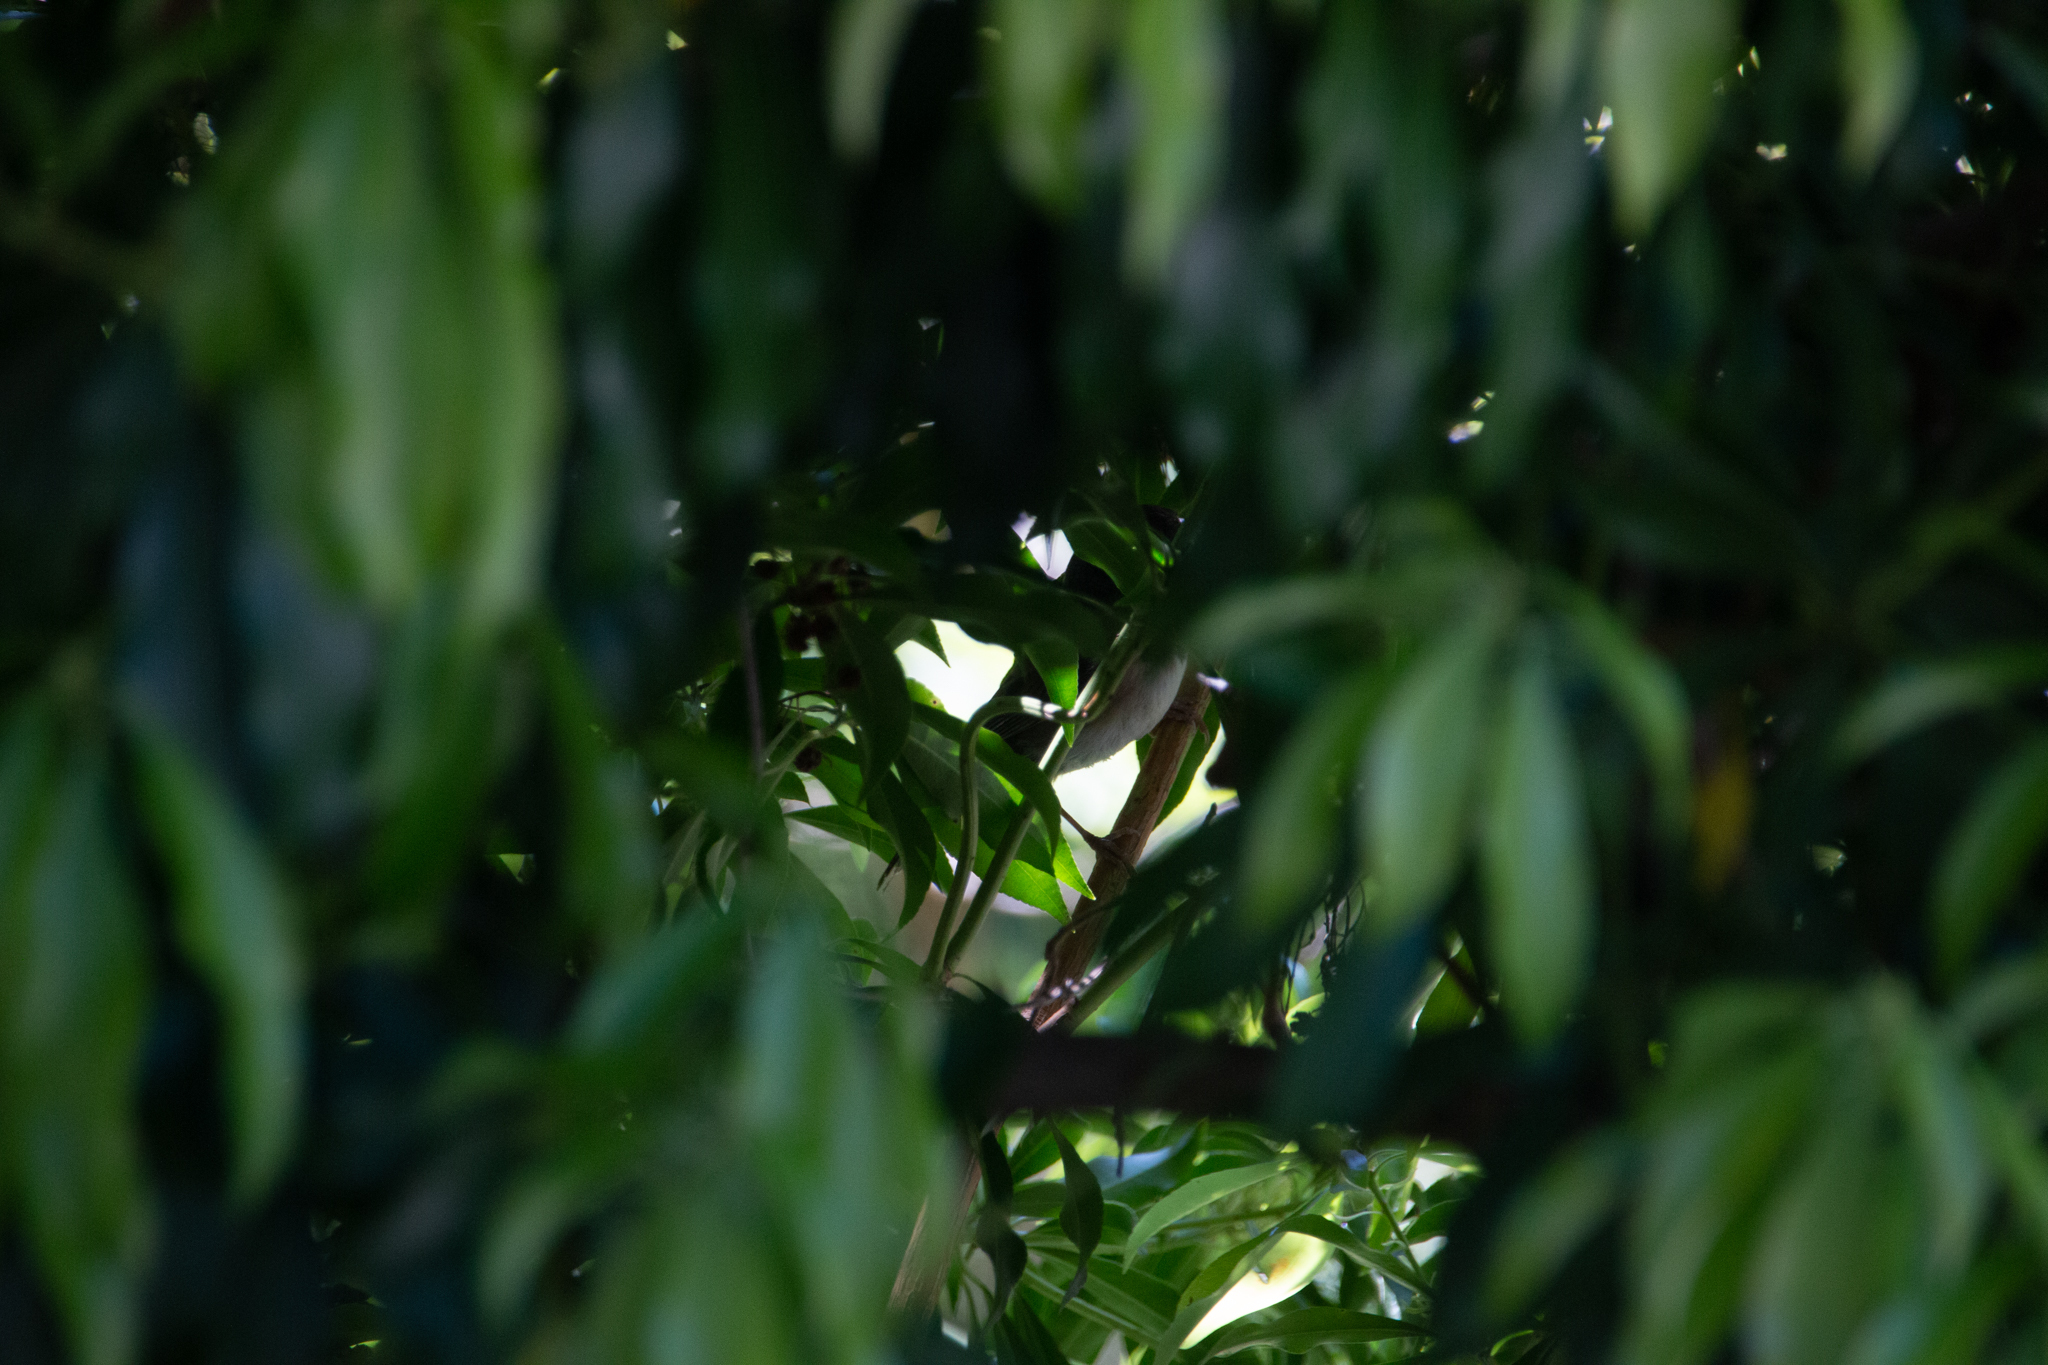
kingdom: Animalia
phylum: Chordata
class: Aves
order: Passeriformes
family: Passerellidae
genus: Junco
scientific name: Junco hyemalis
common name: Dark-eyed junco
